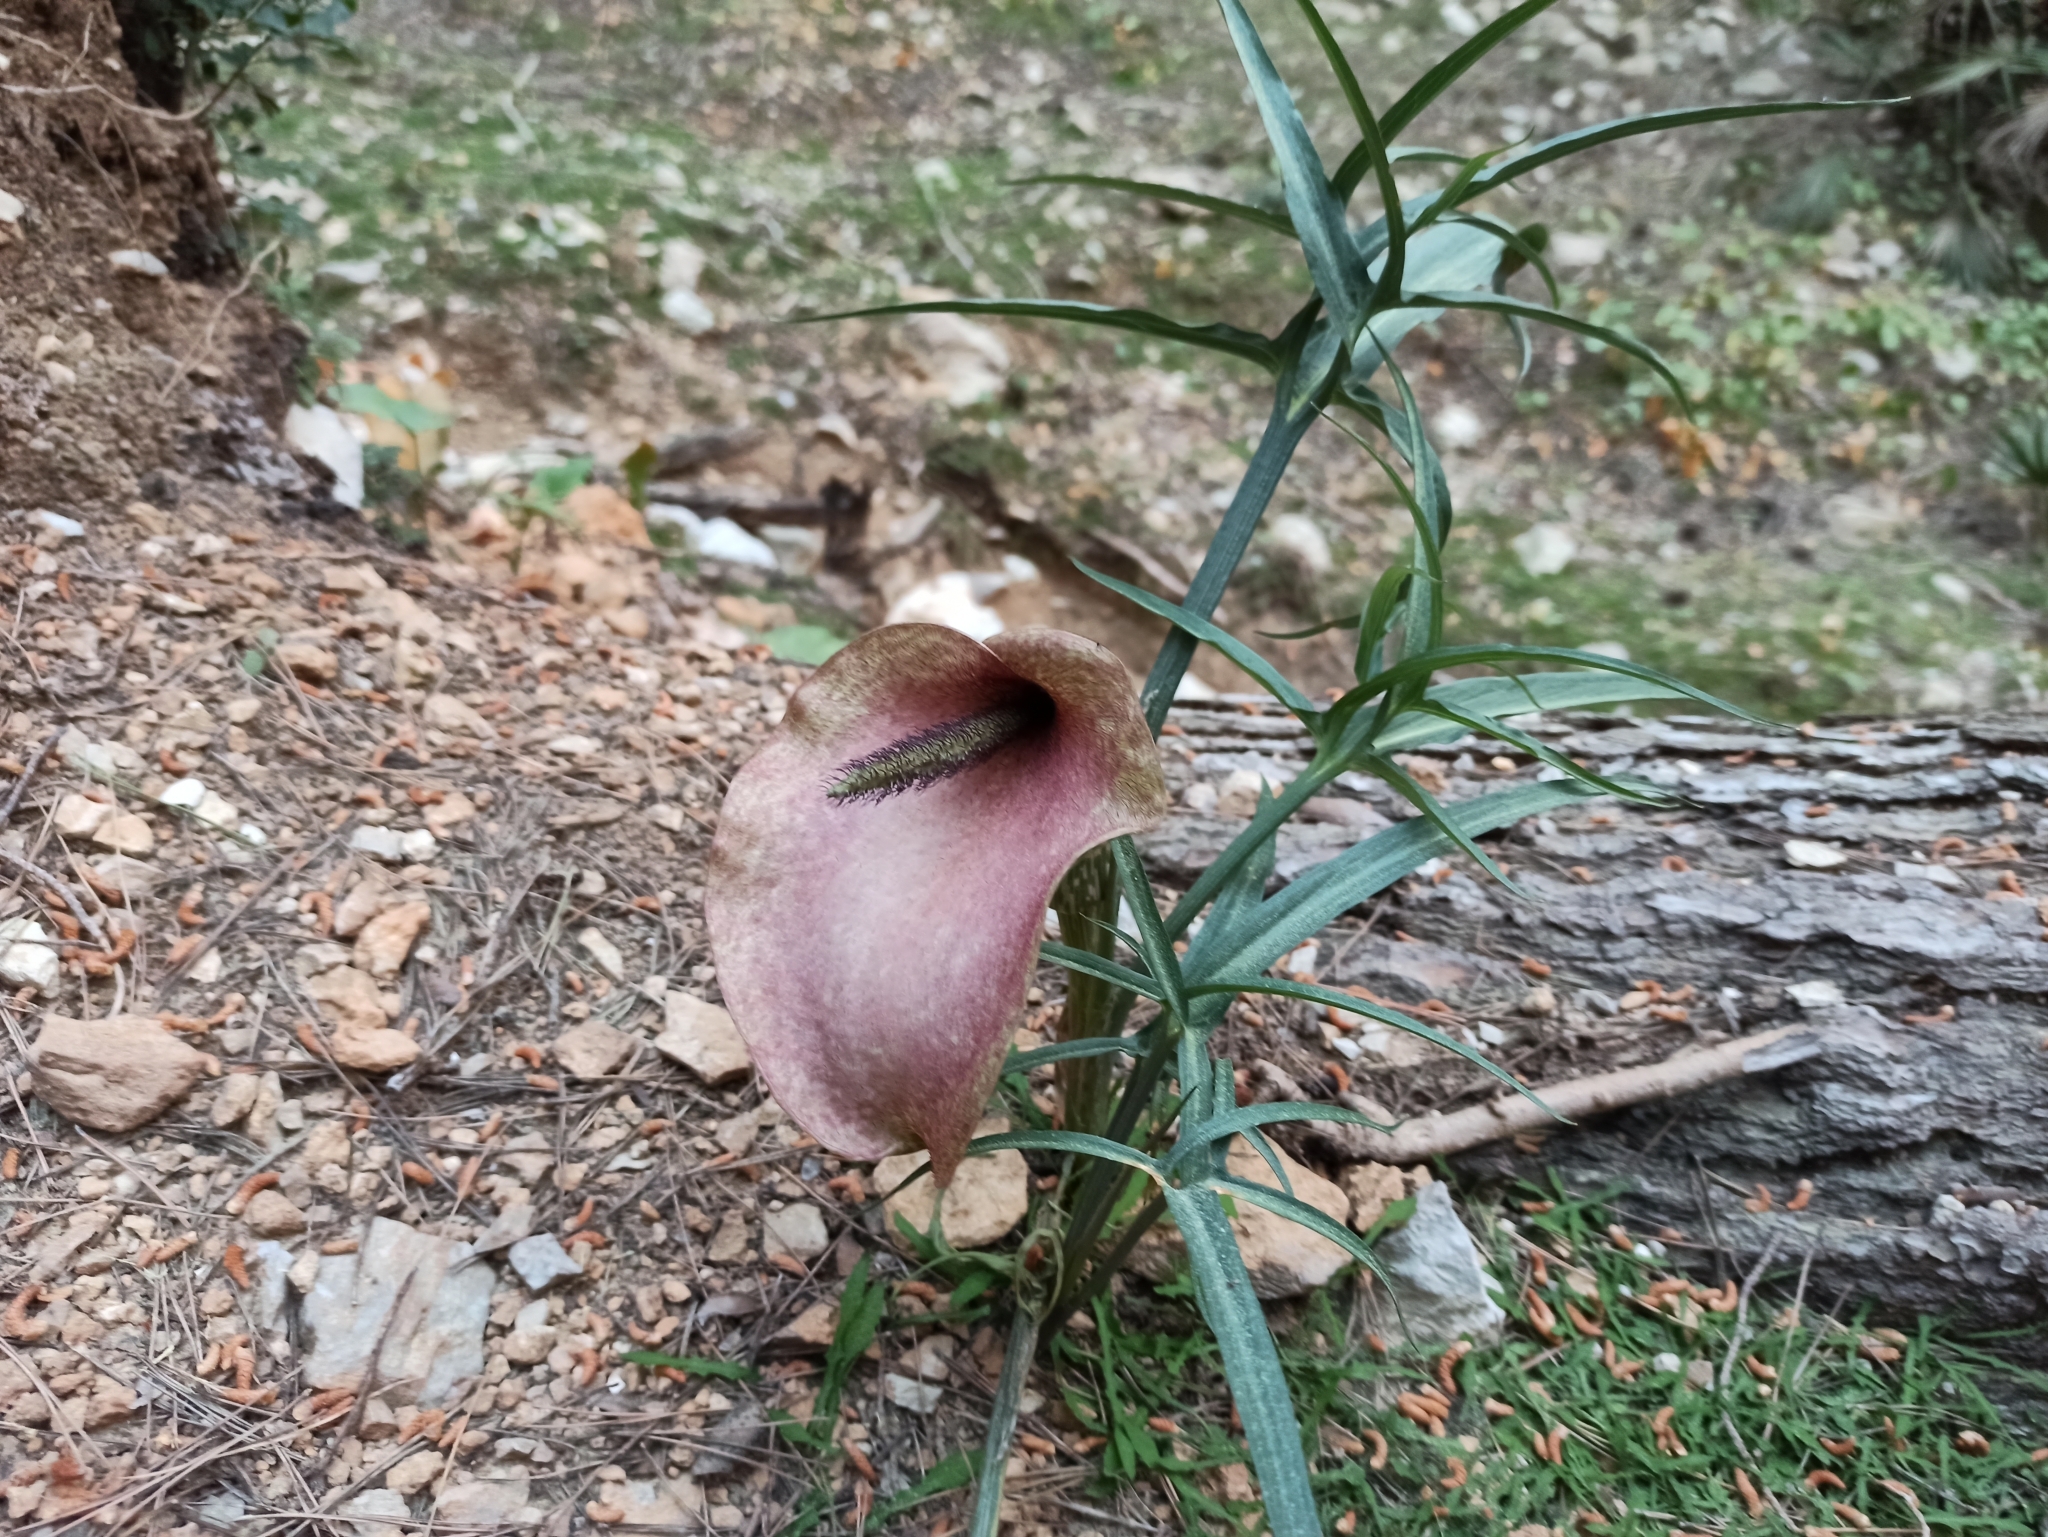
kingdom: Plantae
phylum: Tracheophyta
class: Liliopsida
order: Alismatales
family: Araceae
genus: Helicodiceros
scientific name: Helicodiceros muscivorus
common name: Snakeroot
